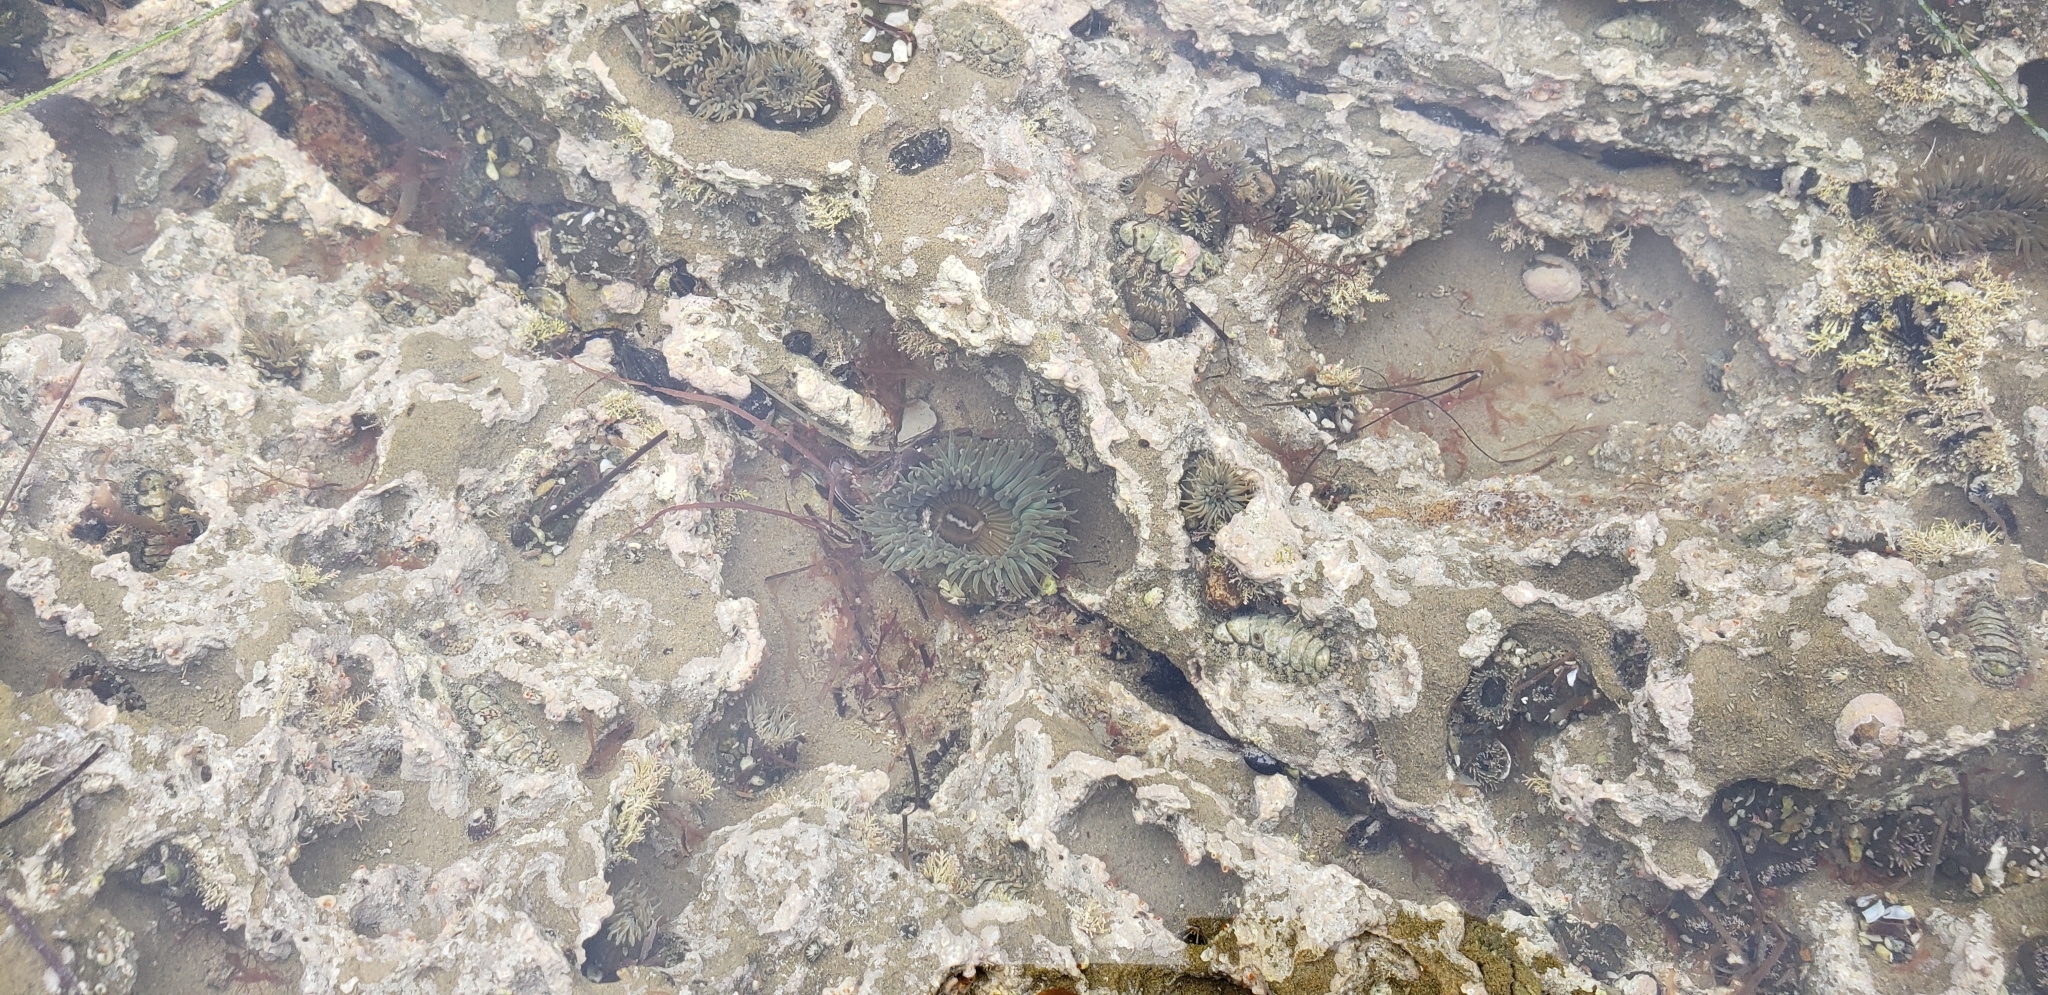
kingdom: Animalia
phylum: Cnidaria
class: Anthozoa
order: Actiniaria
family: Actiniidae
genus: Anthopleura
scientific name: Anthopleura sola
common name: Sun anemone
